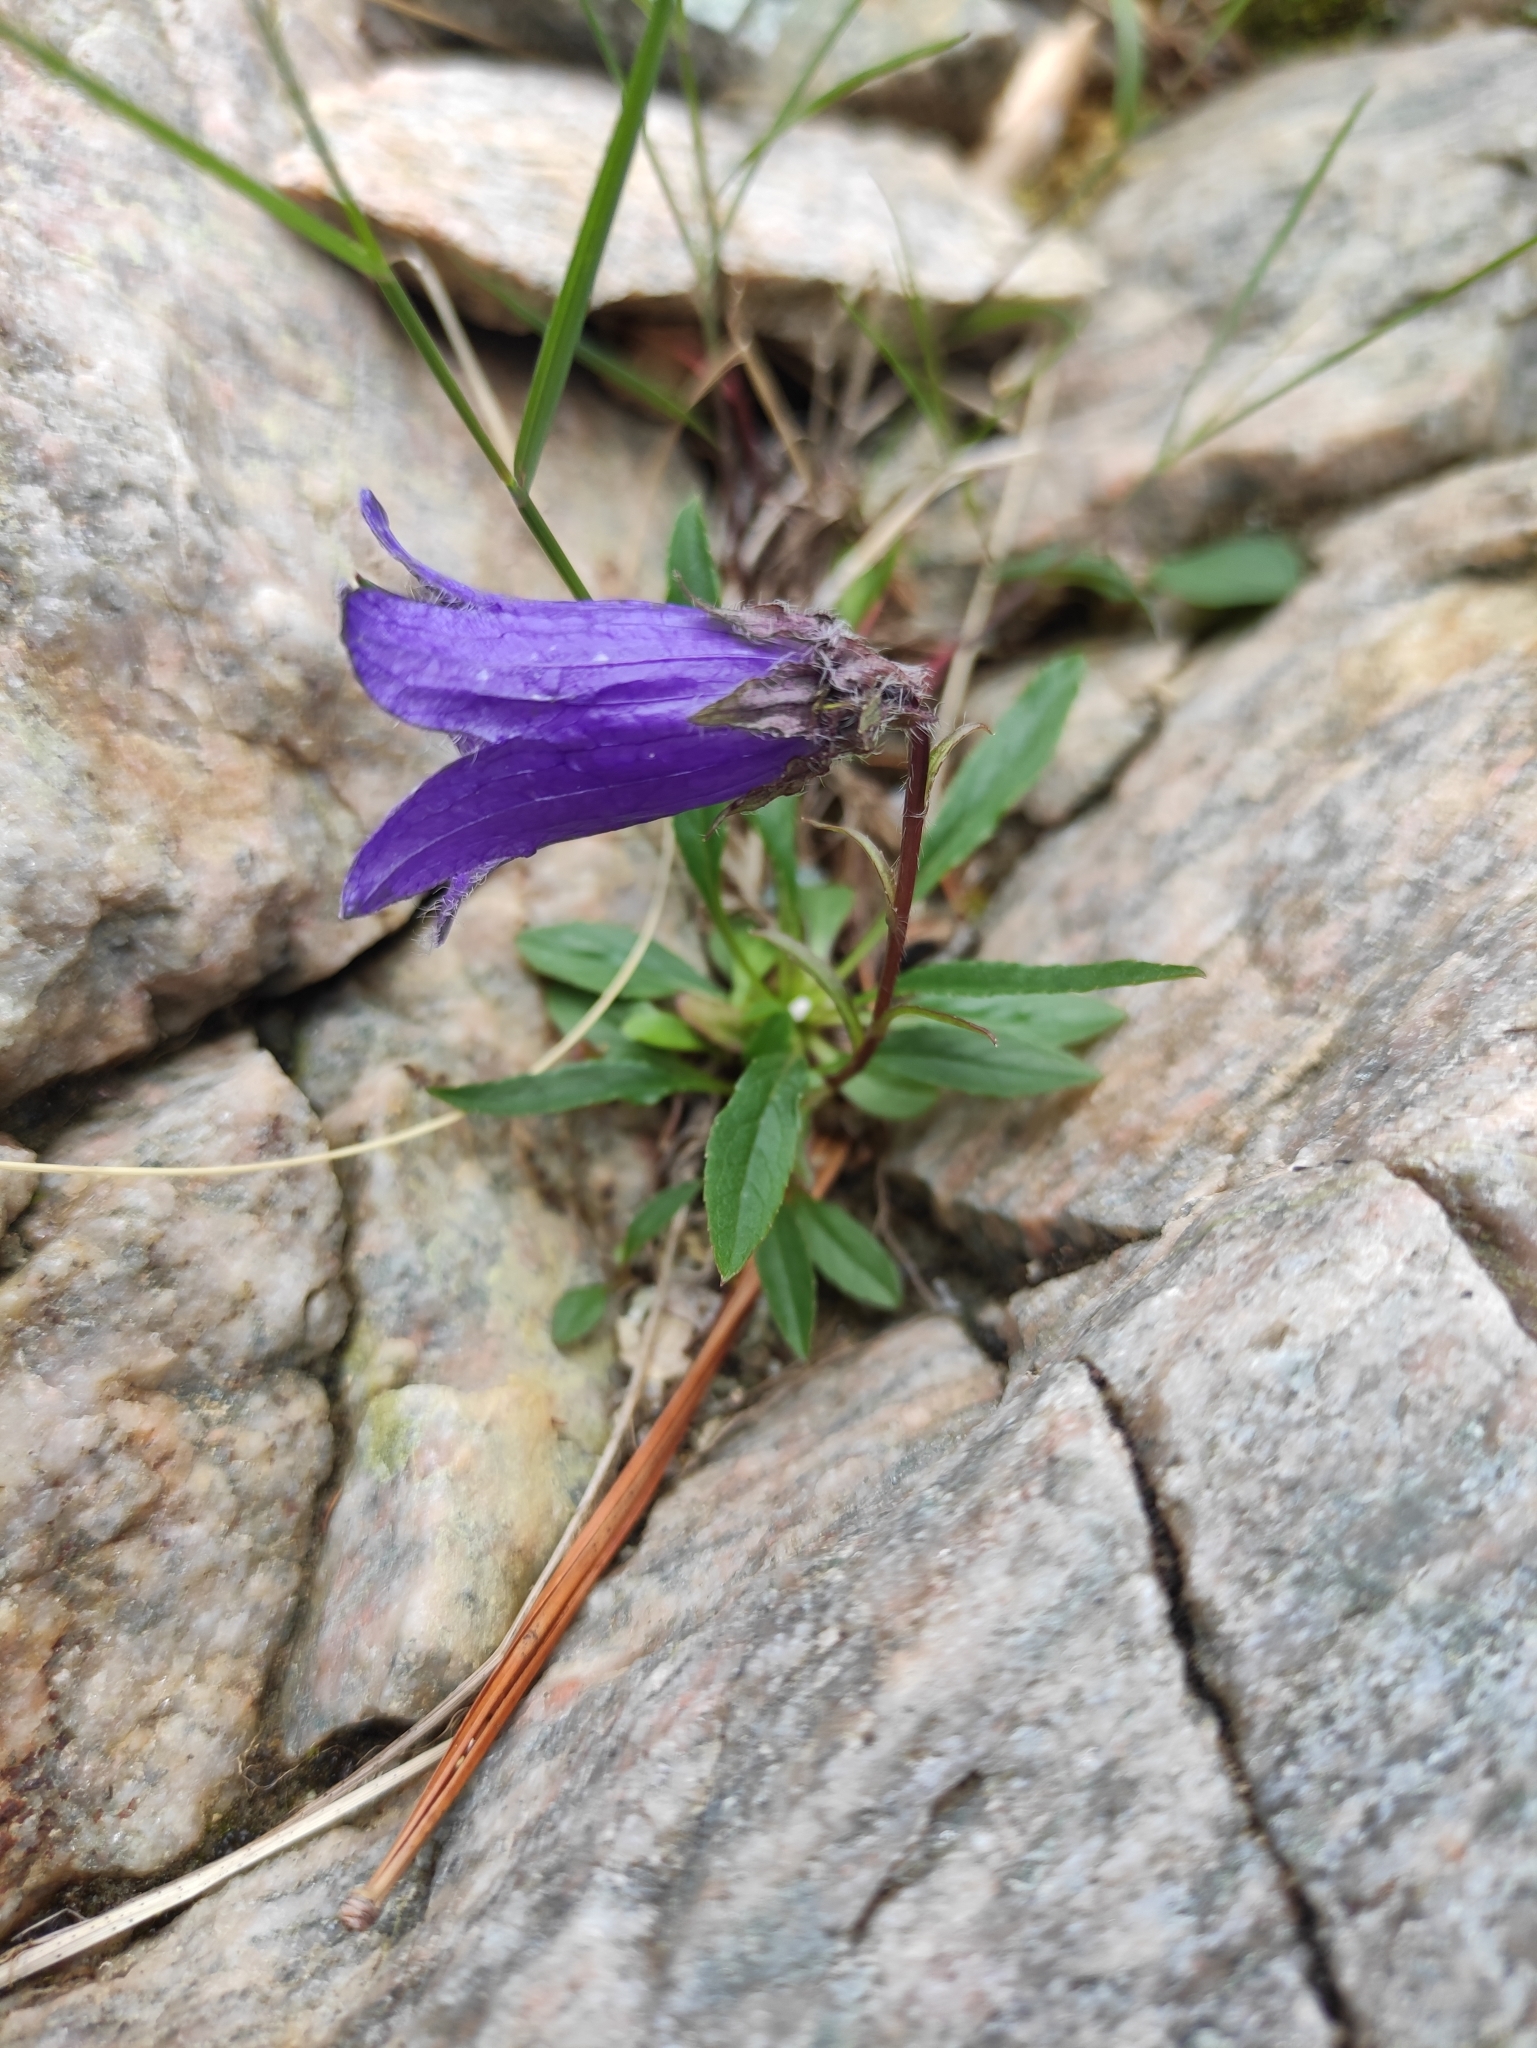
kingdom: Plantae
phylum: Tracheophyta
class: Magnoliopsida
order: Asterales
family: Campanulaceae
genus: Campanula
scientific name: Campanula dasyantha
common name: Hairyflower bellflower
